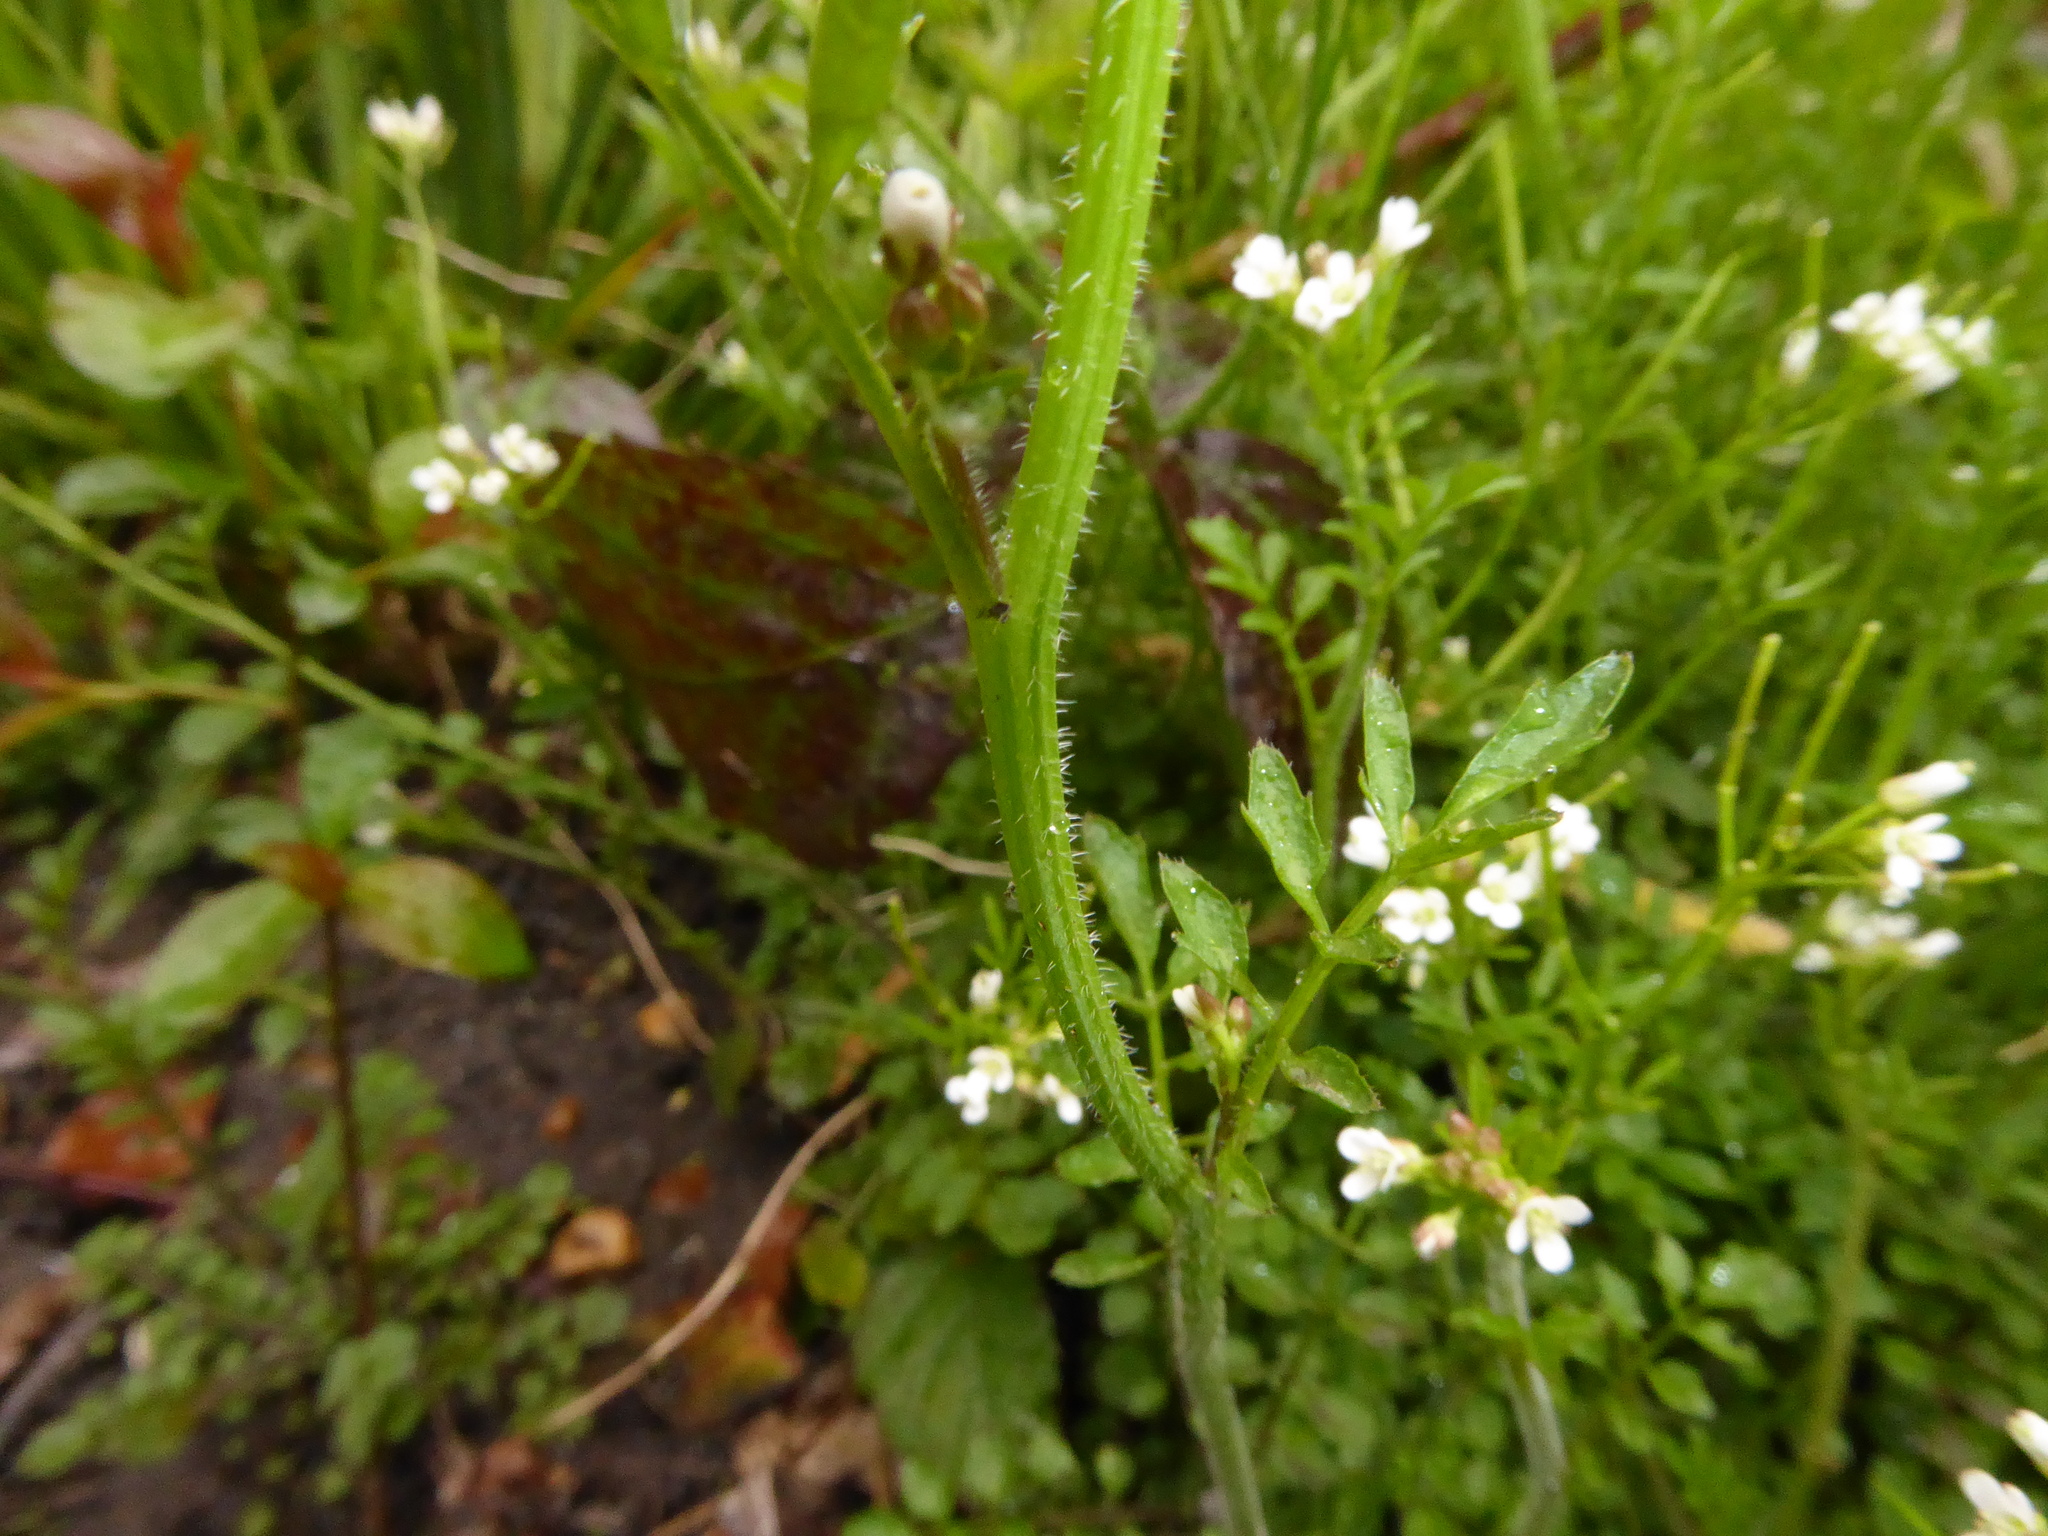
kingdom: Plantae
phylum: Tracheophyta
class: Magnoliopsida
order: Brassicales
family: Brassicaceae
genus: Cardamine
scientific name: Cardamine flexuosa
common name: Woodland bittercress
